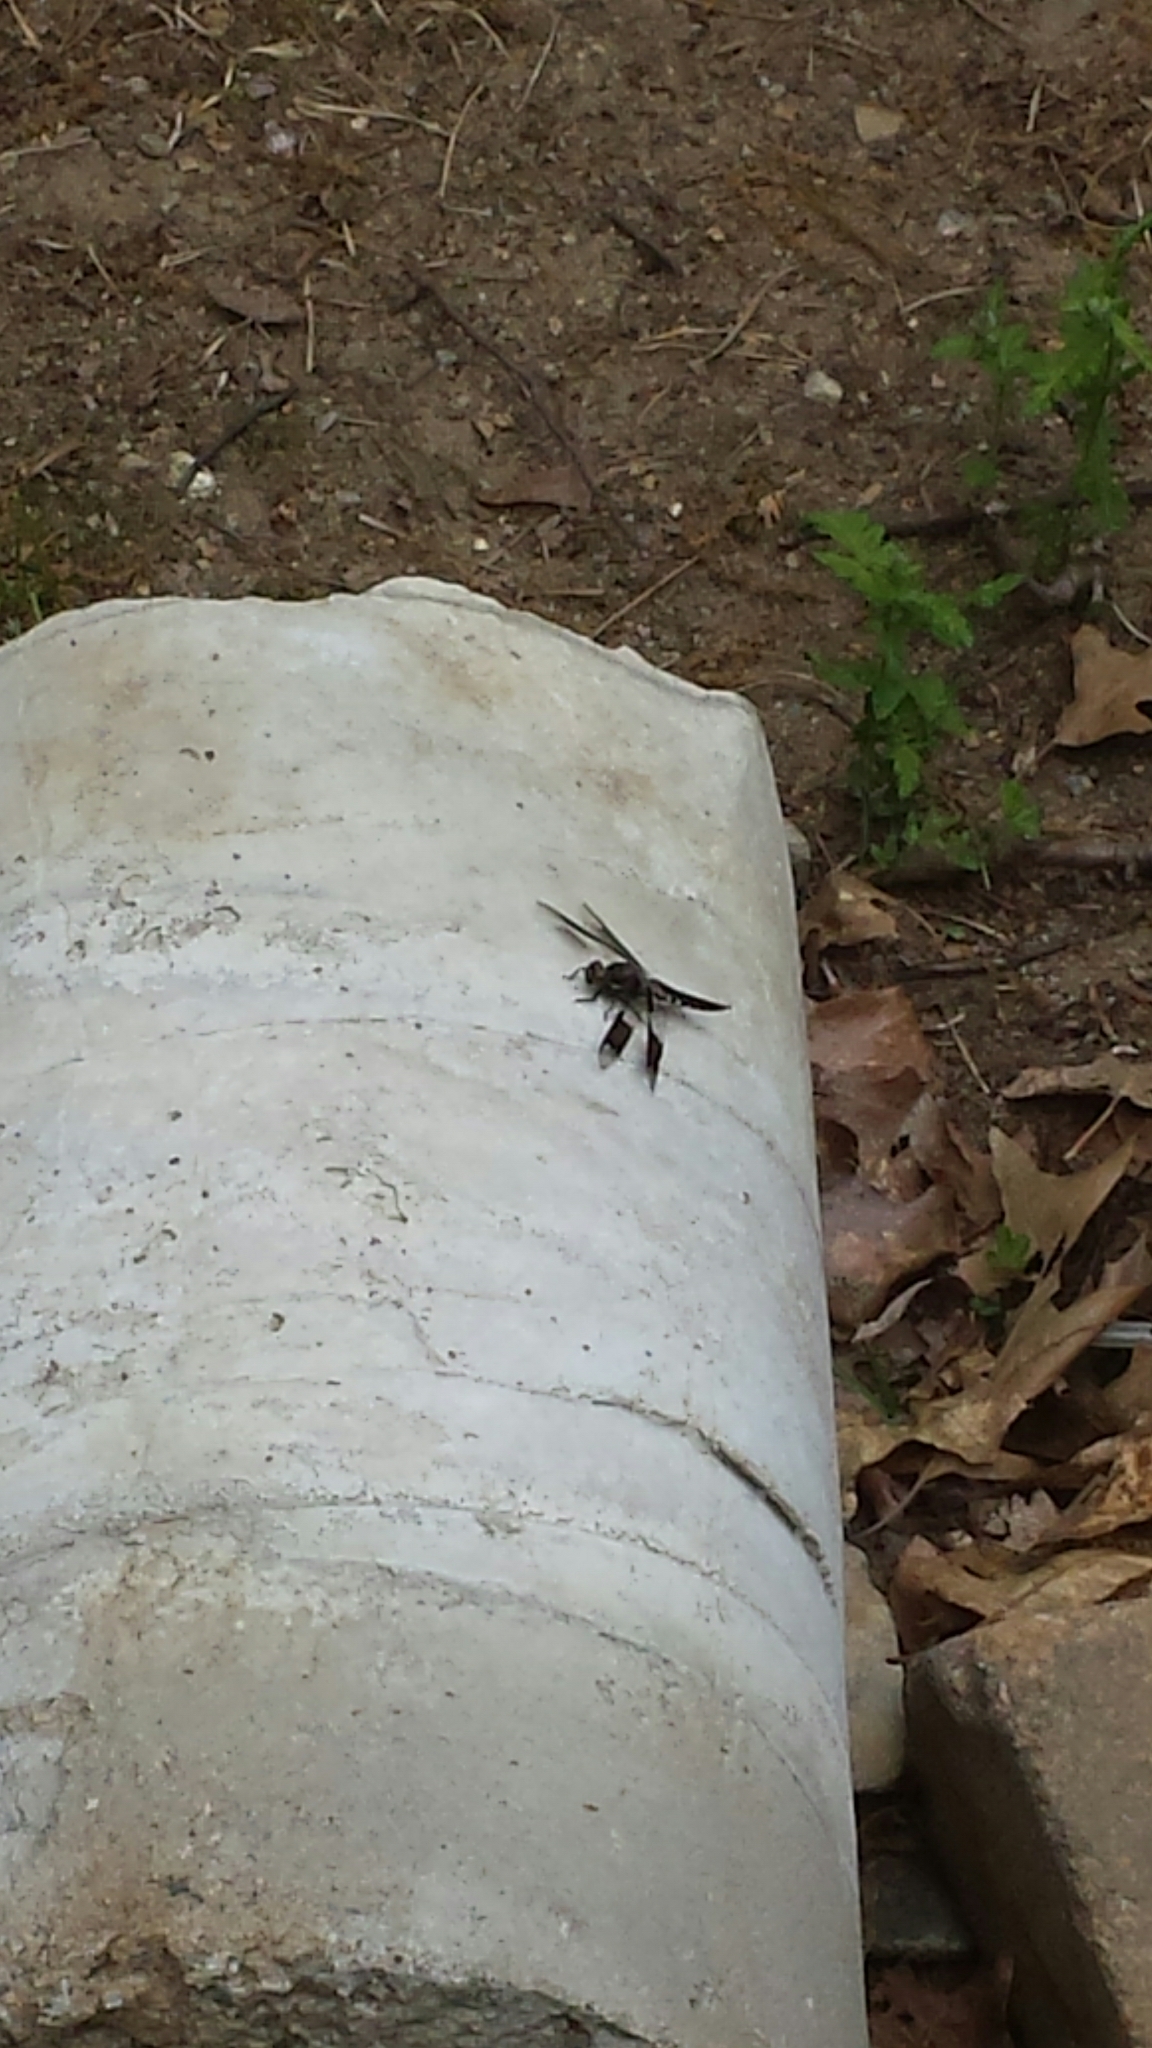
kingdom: Animalia
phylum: Arthropoda
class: Insecta
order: Odonata
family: Libellulidae
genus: Plathemis
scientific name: Plathemis lydia
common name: Common whitetail
